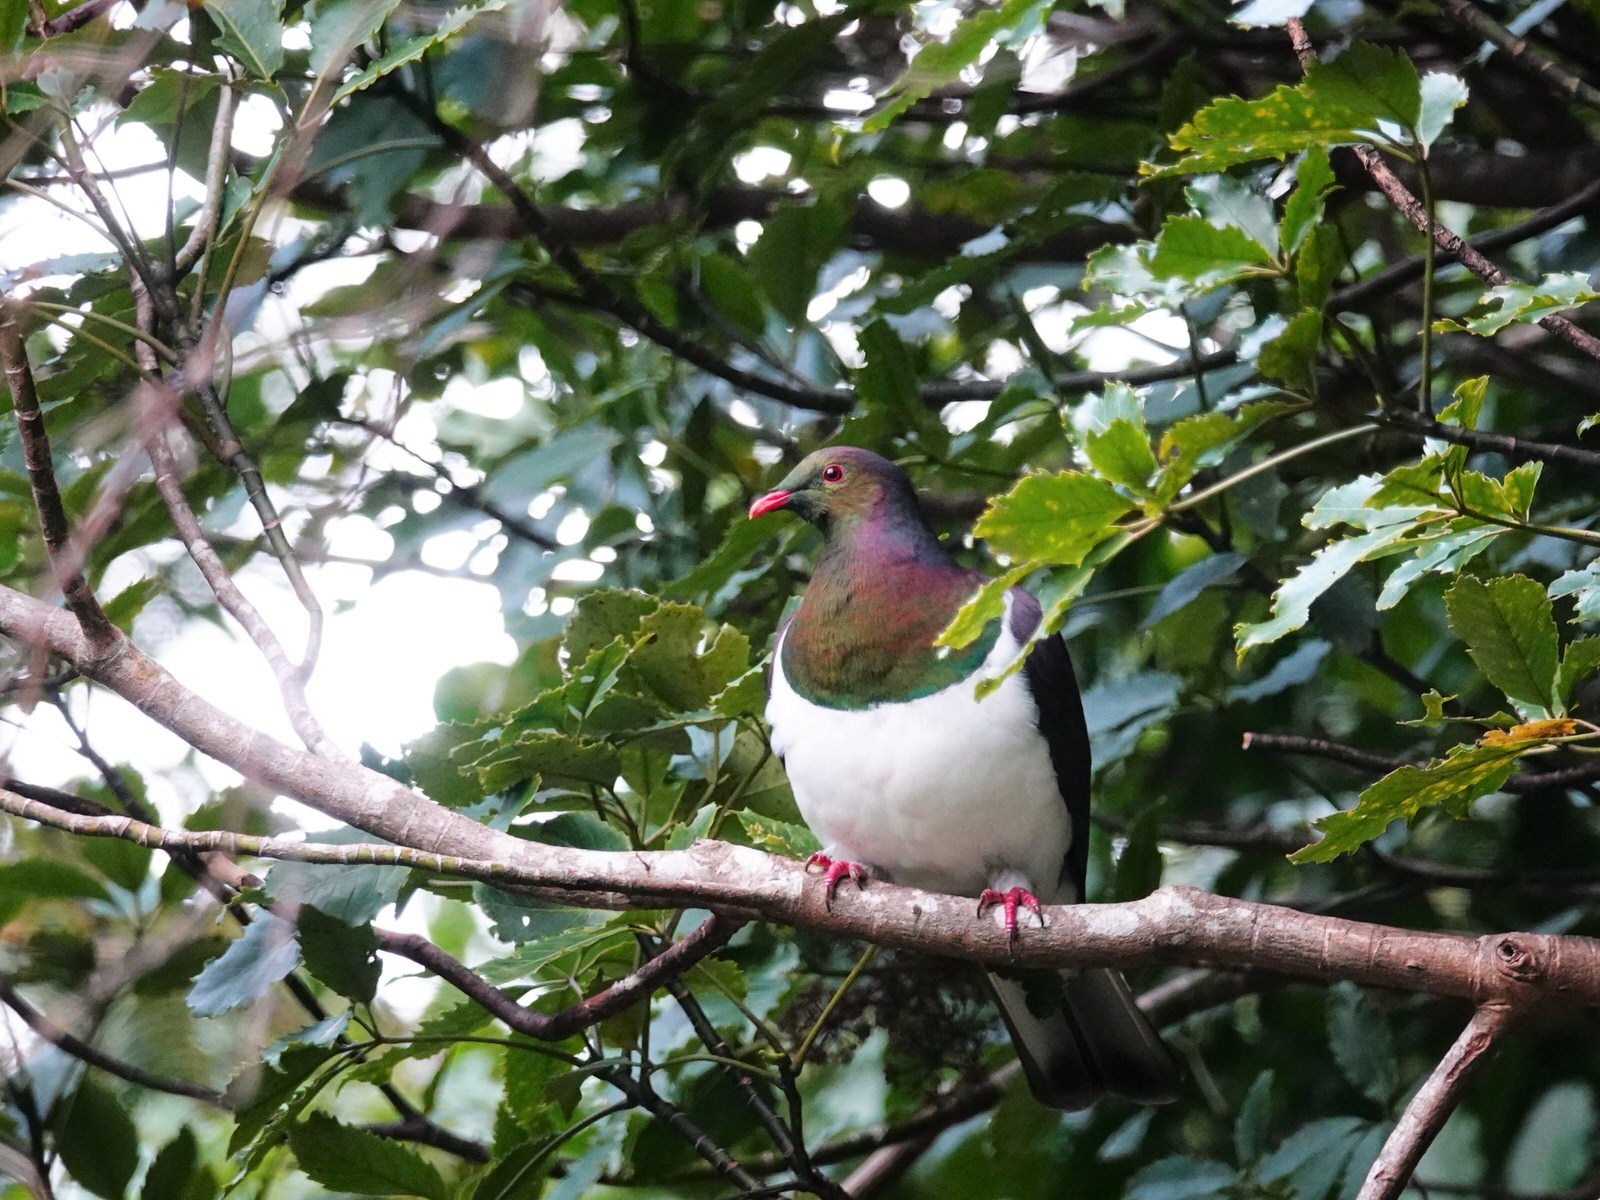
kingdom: Animalia
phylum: Chordata
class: Aves
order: Columbiformes
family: Columbidae
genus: Hemiphaga
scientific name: Hemiphaga novaeseelandiae
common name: New zealand pigeon
